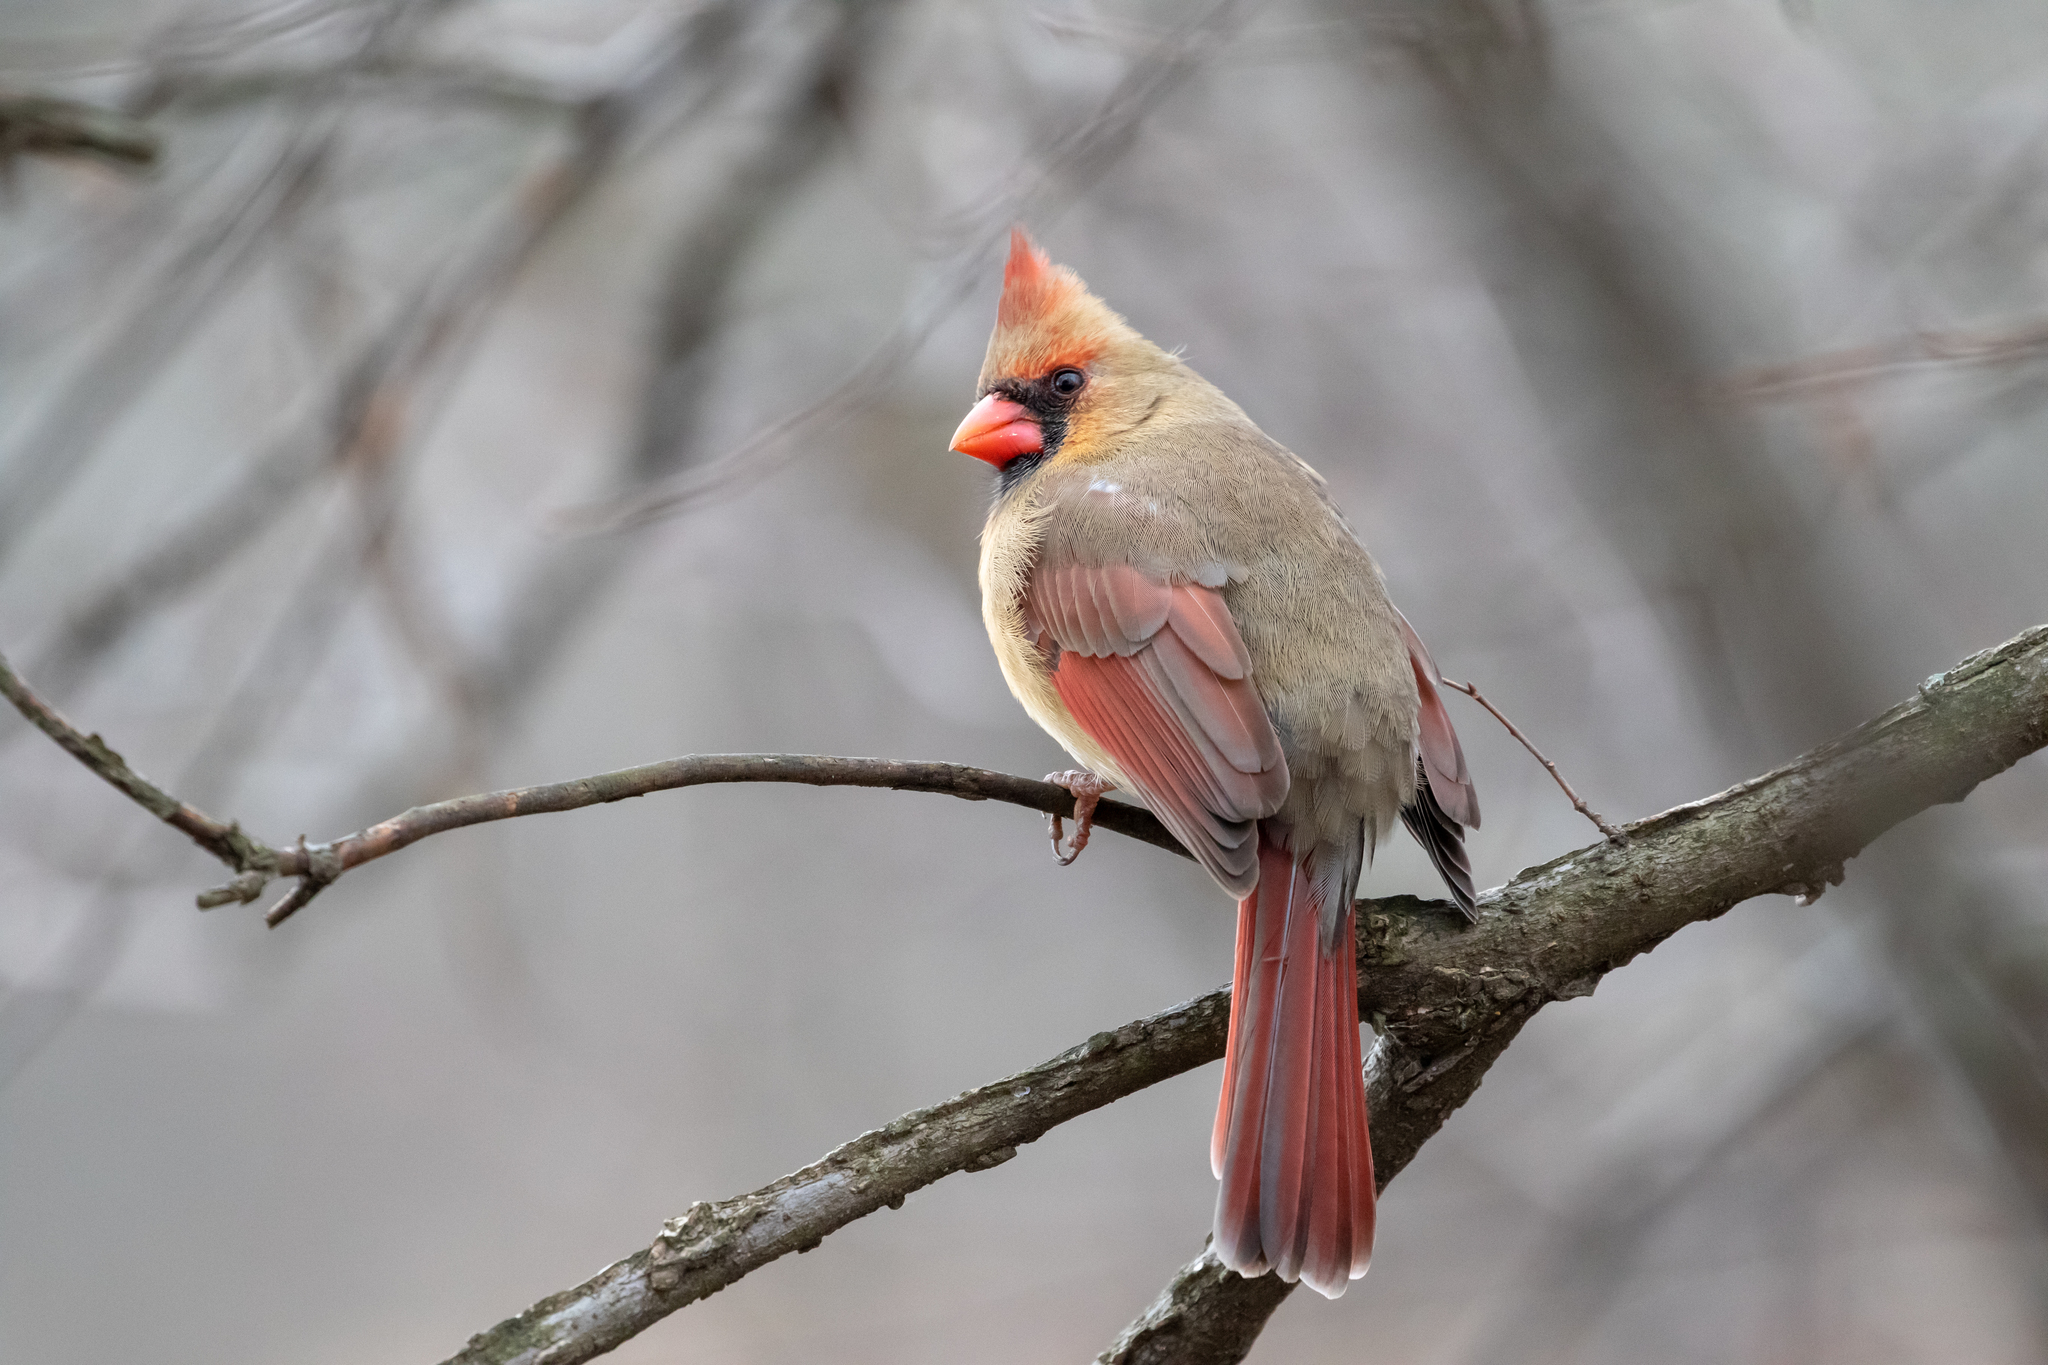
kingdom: Animalia
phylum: Chordata
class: Aves
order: Passeriformes
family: Cardinalidae
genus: Cardinalis
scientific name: Cardinalis cardinalis
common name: Northern cardinal
